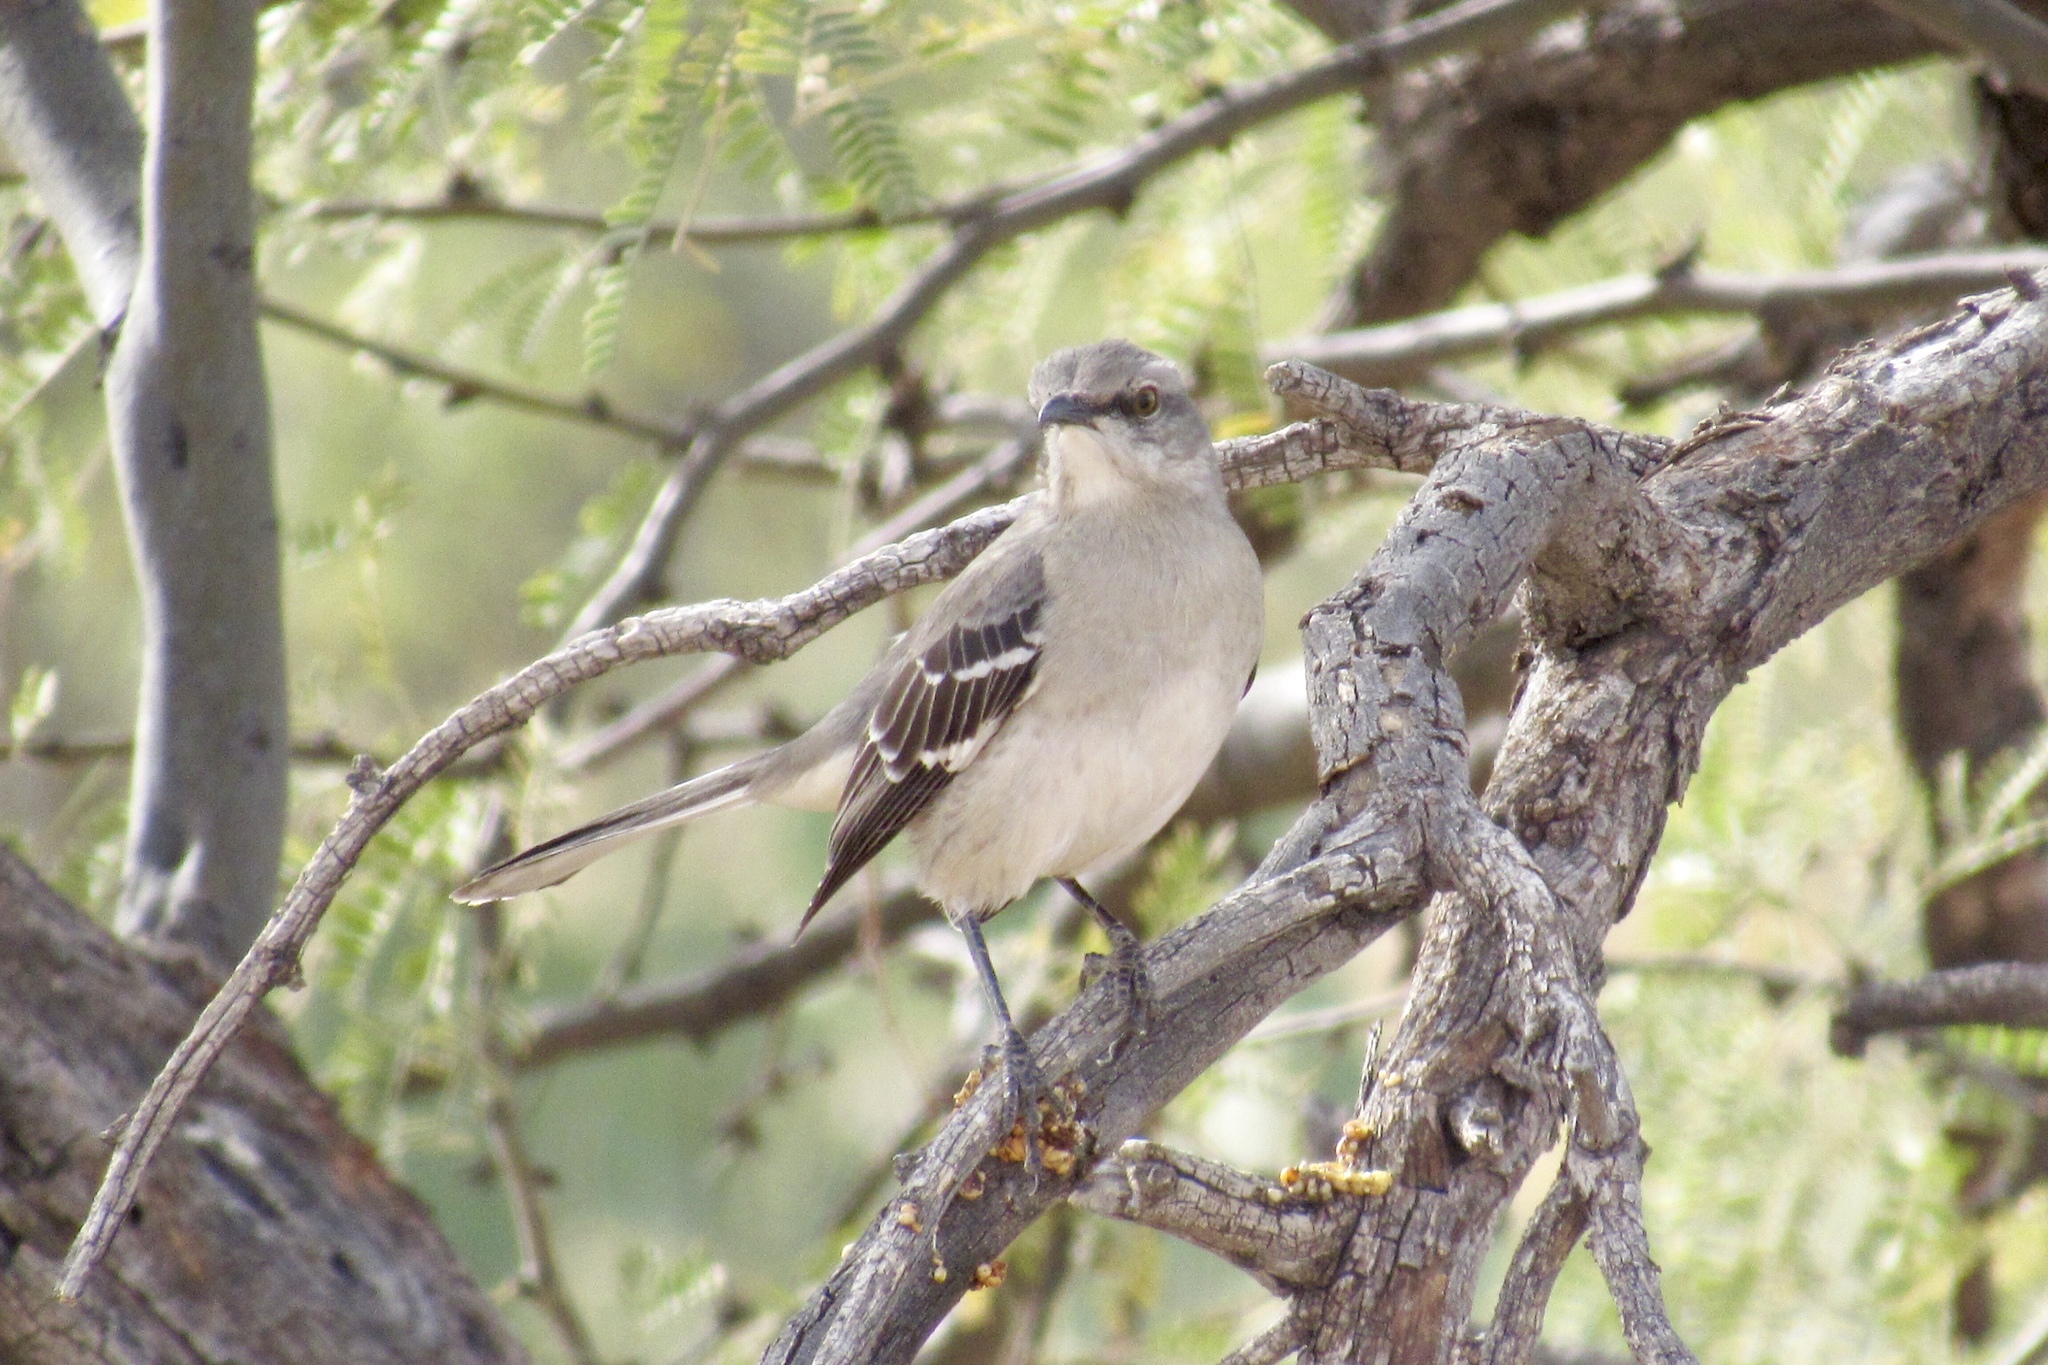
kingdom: Animalia
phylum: Chordata
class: Aves
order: Passeriformes
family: Mimidae
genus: Mimus
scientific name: Mimus polyglottos
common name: Northern mockingbird
